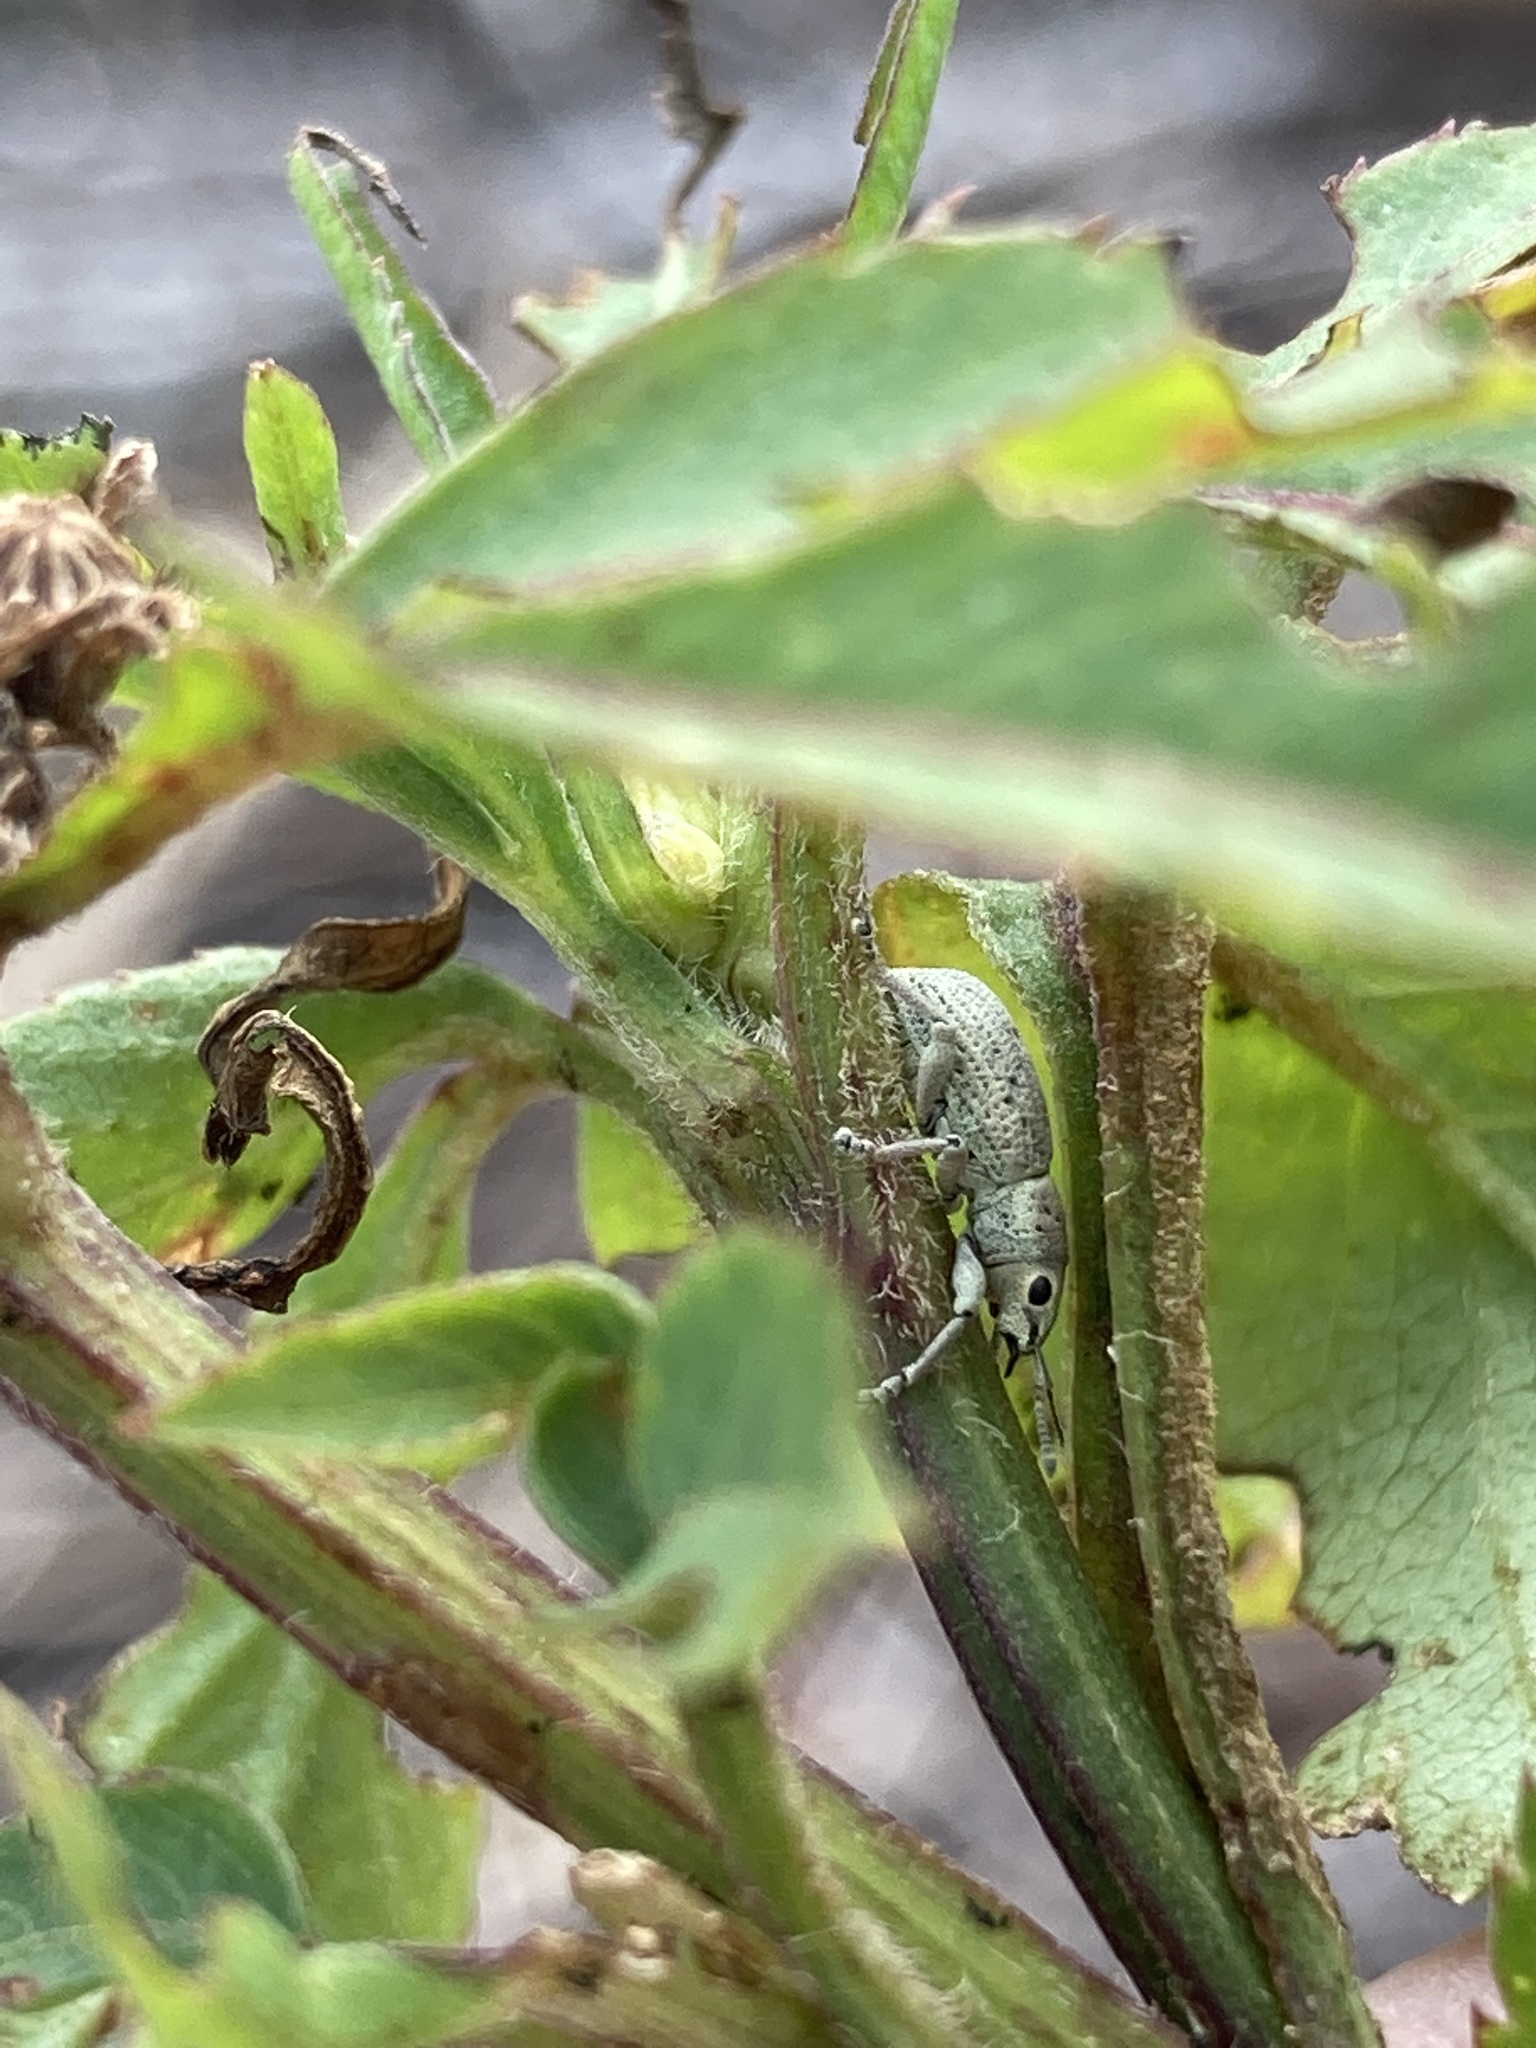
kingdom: Animalia
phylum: Arthropoda
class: Insecta
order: Coleoptera
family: Curculionidae
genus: Artipus
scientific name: Artipus floridanus
